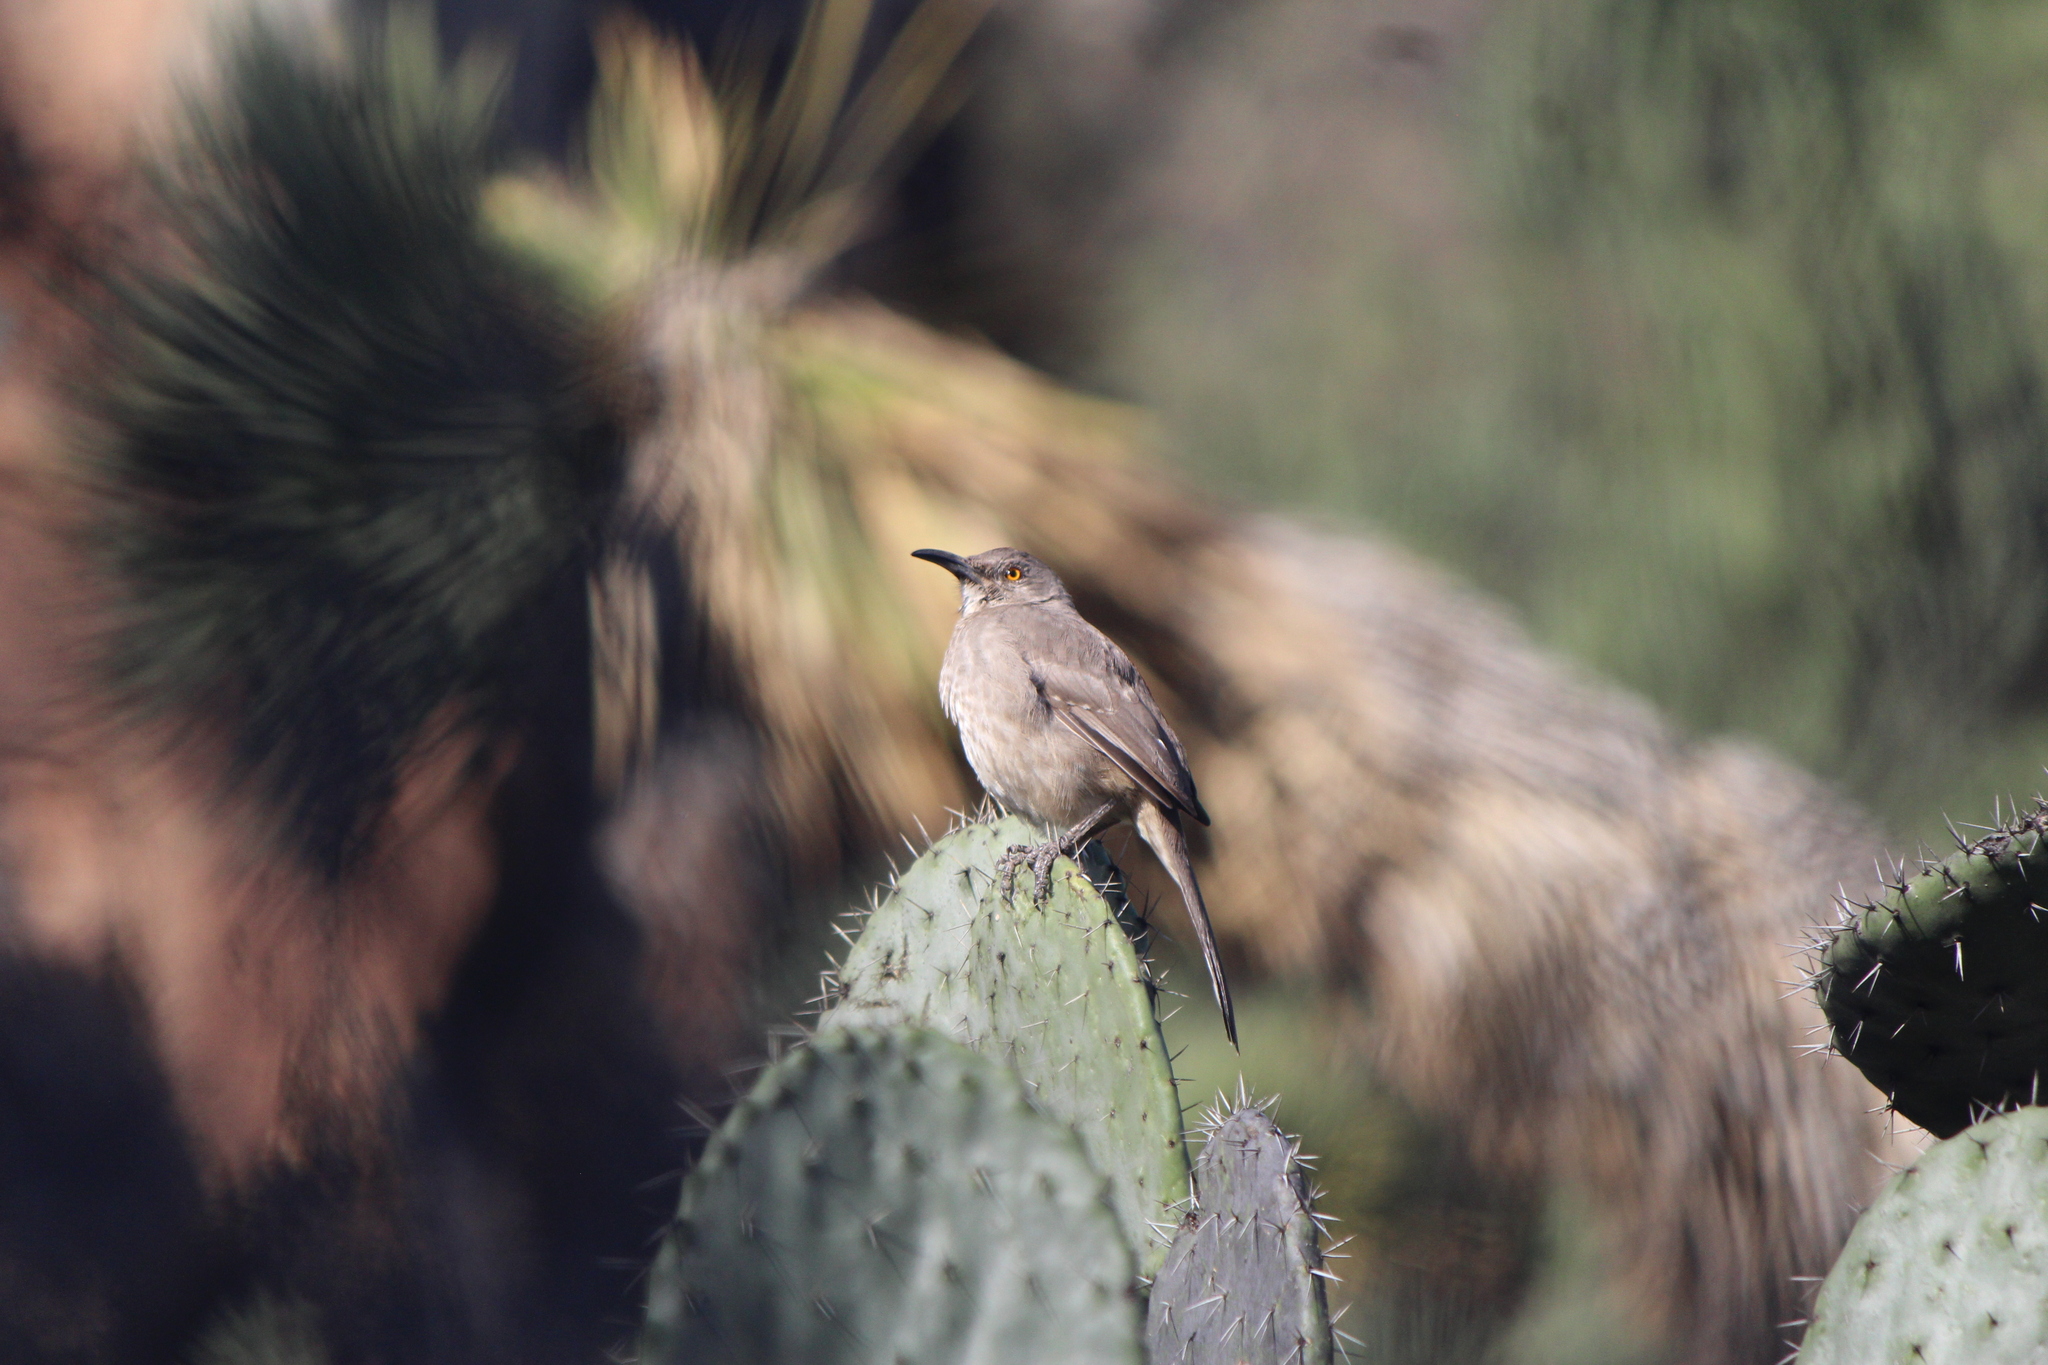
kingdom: Animalia
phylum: Chordata
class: Aves
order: Passeriformes
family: Mimidae
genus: Toxostoma
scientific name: Toxostoma curvirostre
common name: Curve-billed thrasher
